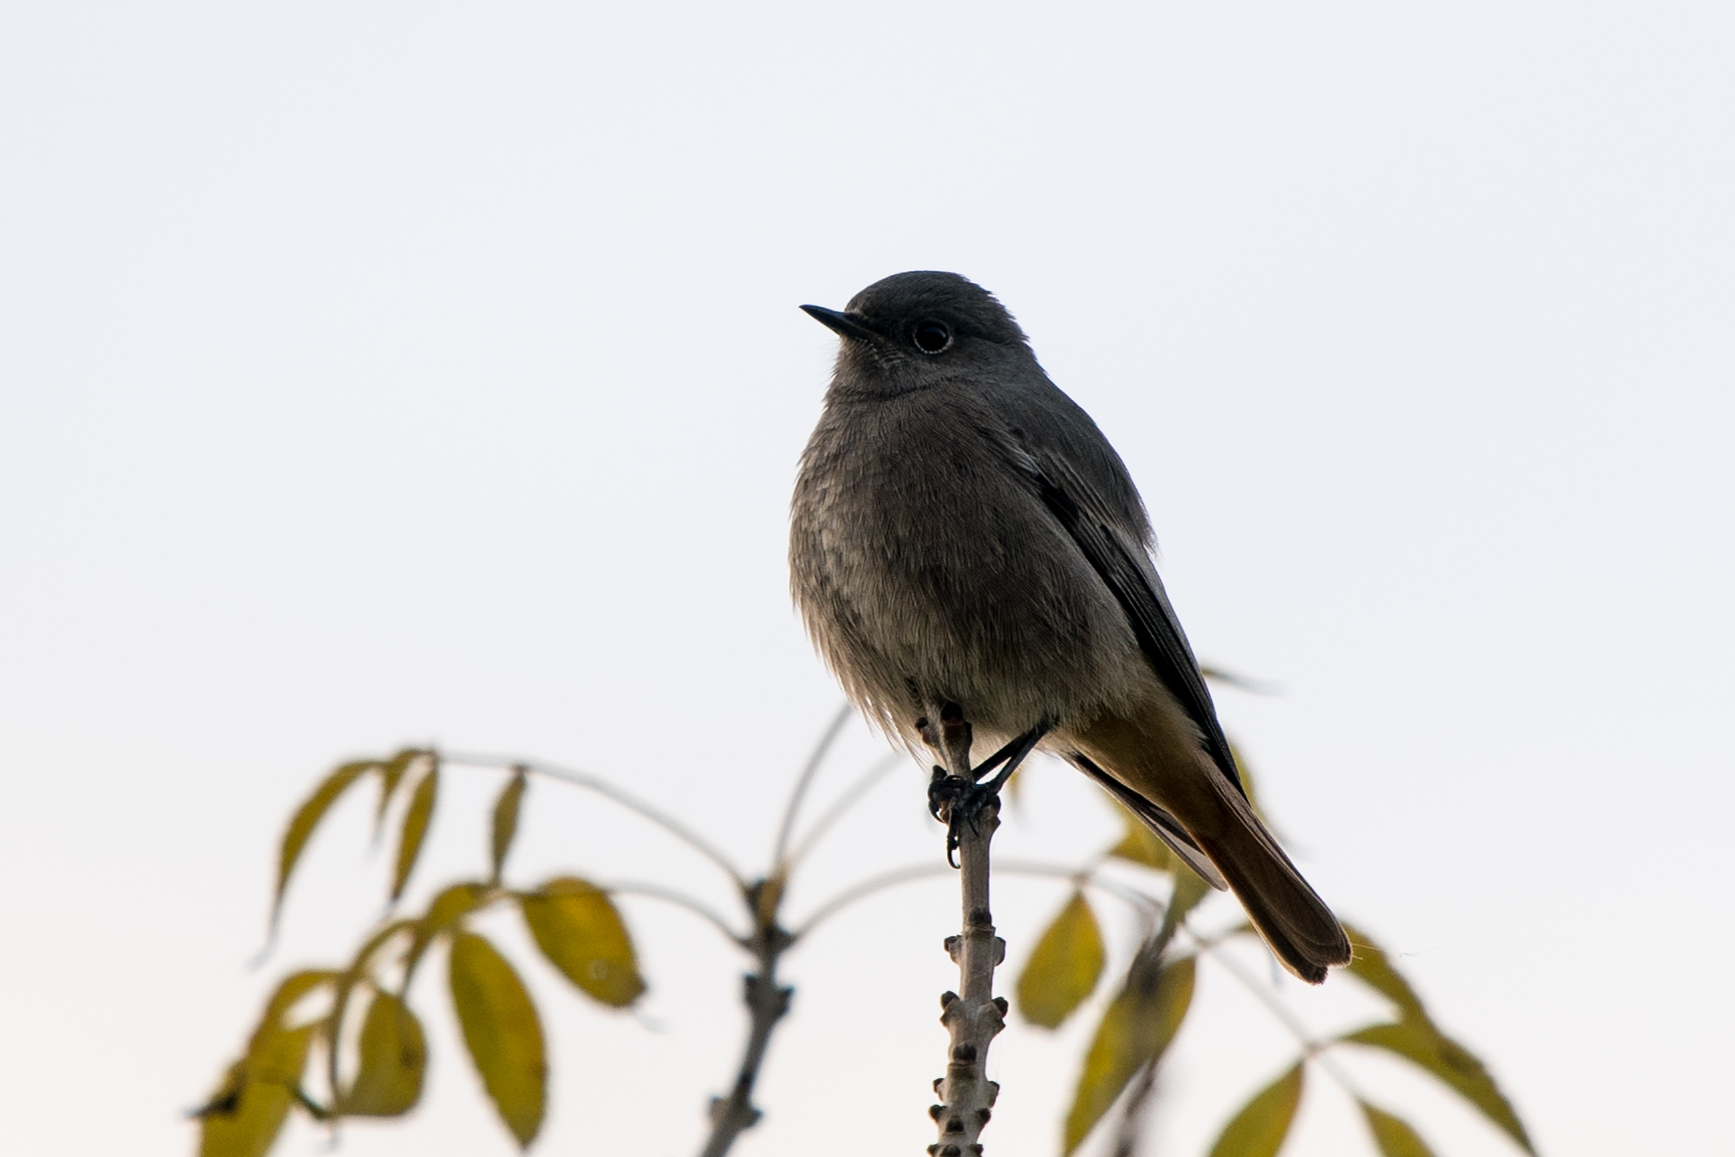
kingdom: Animalia
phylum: Chordata
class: Aves
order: Passeriformes
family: Muscicapidae
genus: Phoenicurus
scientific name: Phoenicurus ochruros
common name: Black redstart
